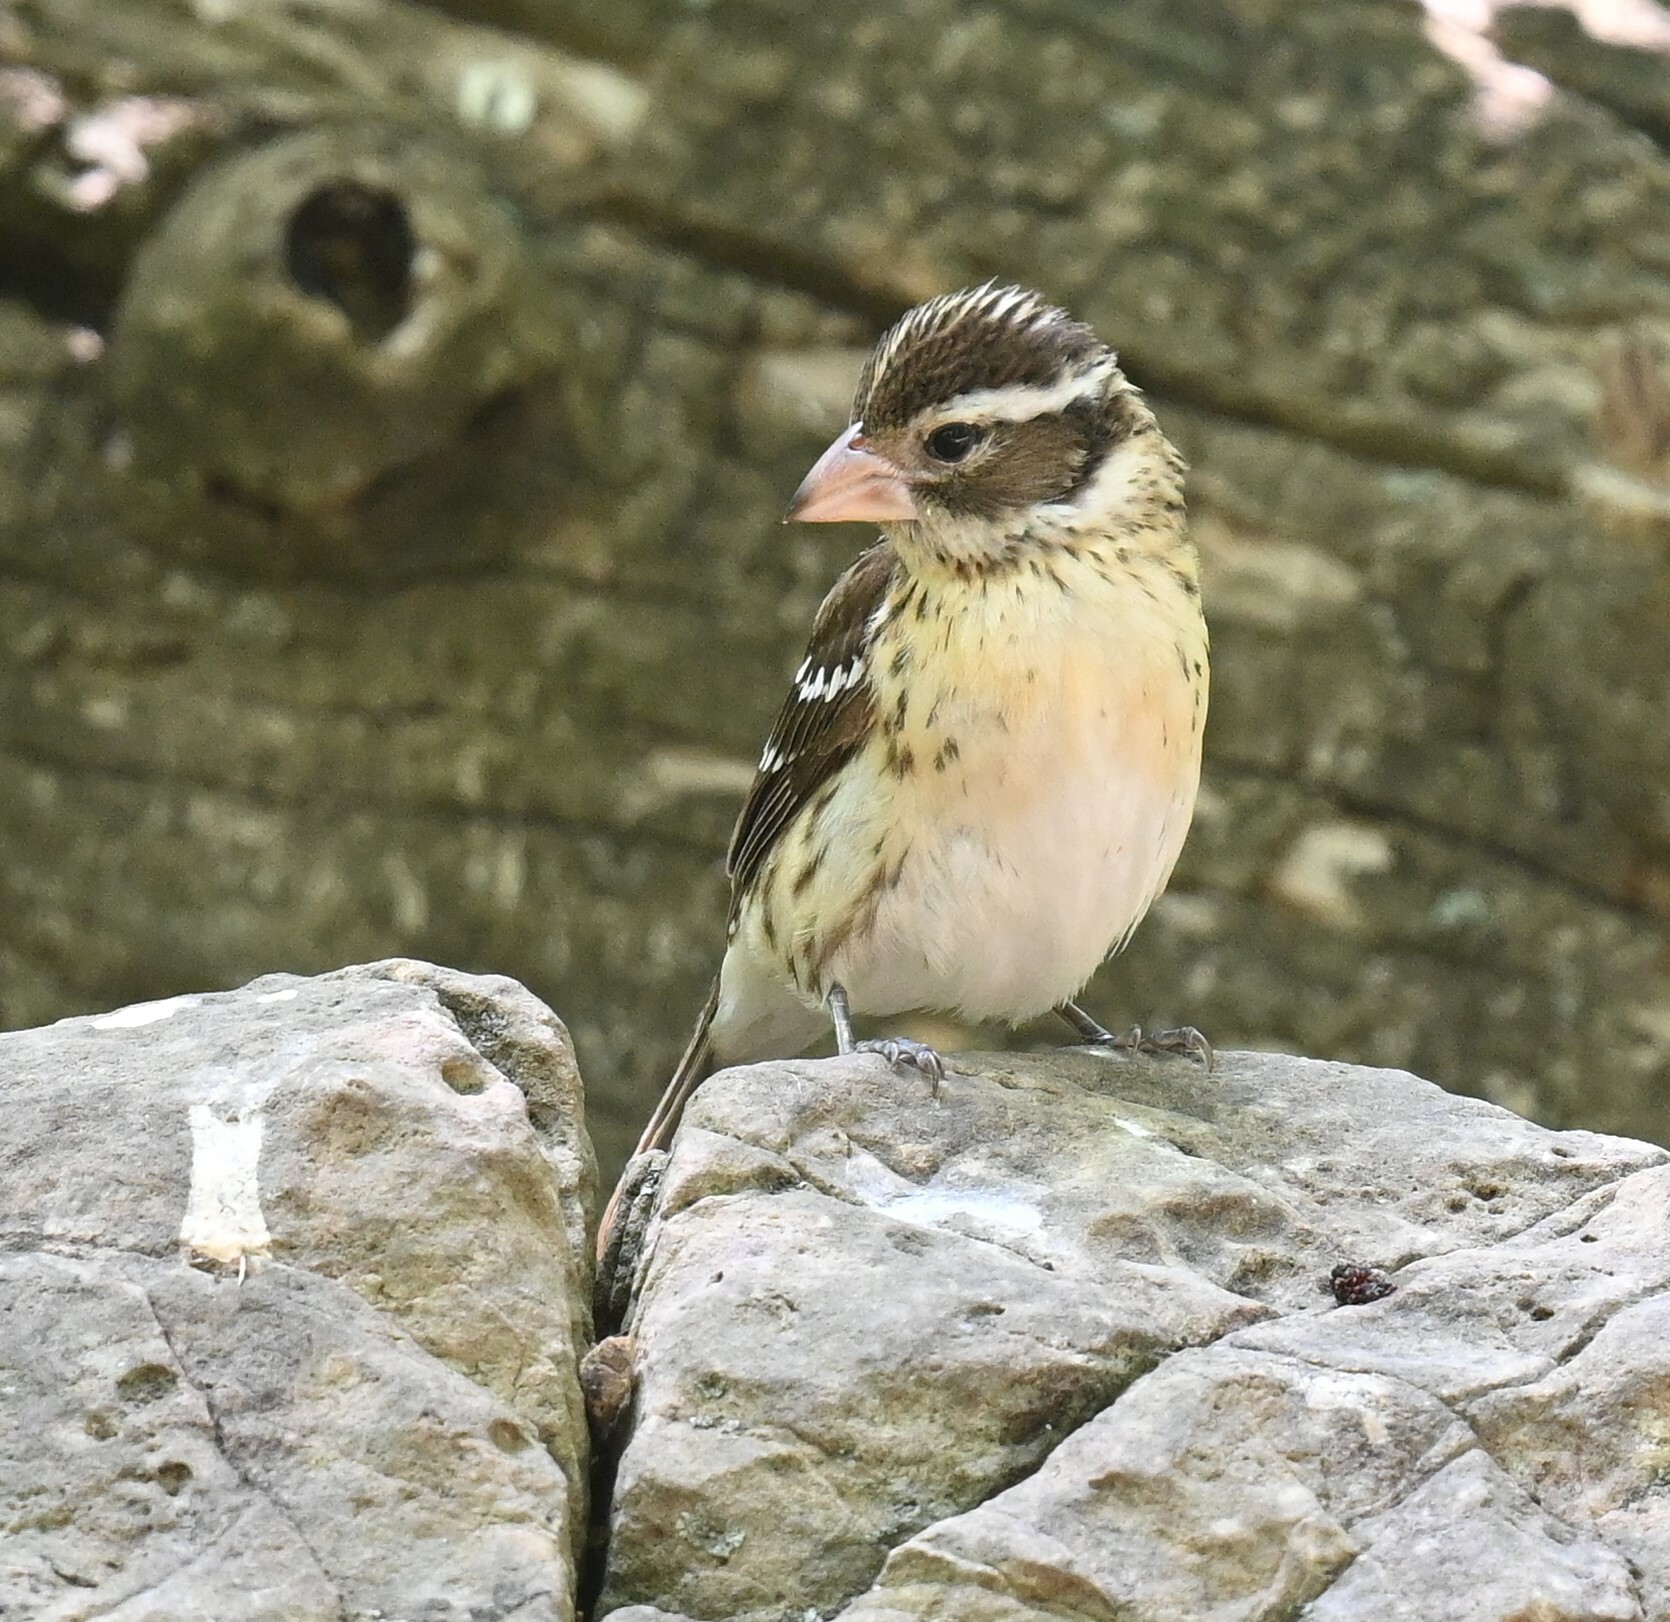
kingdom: Animalia
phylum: Chordata
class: Aves
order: Passeriformes
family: Cardinalidae
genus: Pheucticus
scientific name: Pheucticus ludovicianus
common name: Rose-breasted grosbeak
